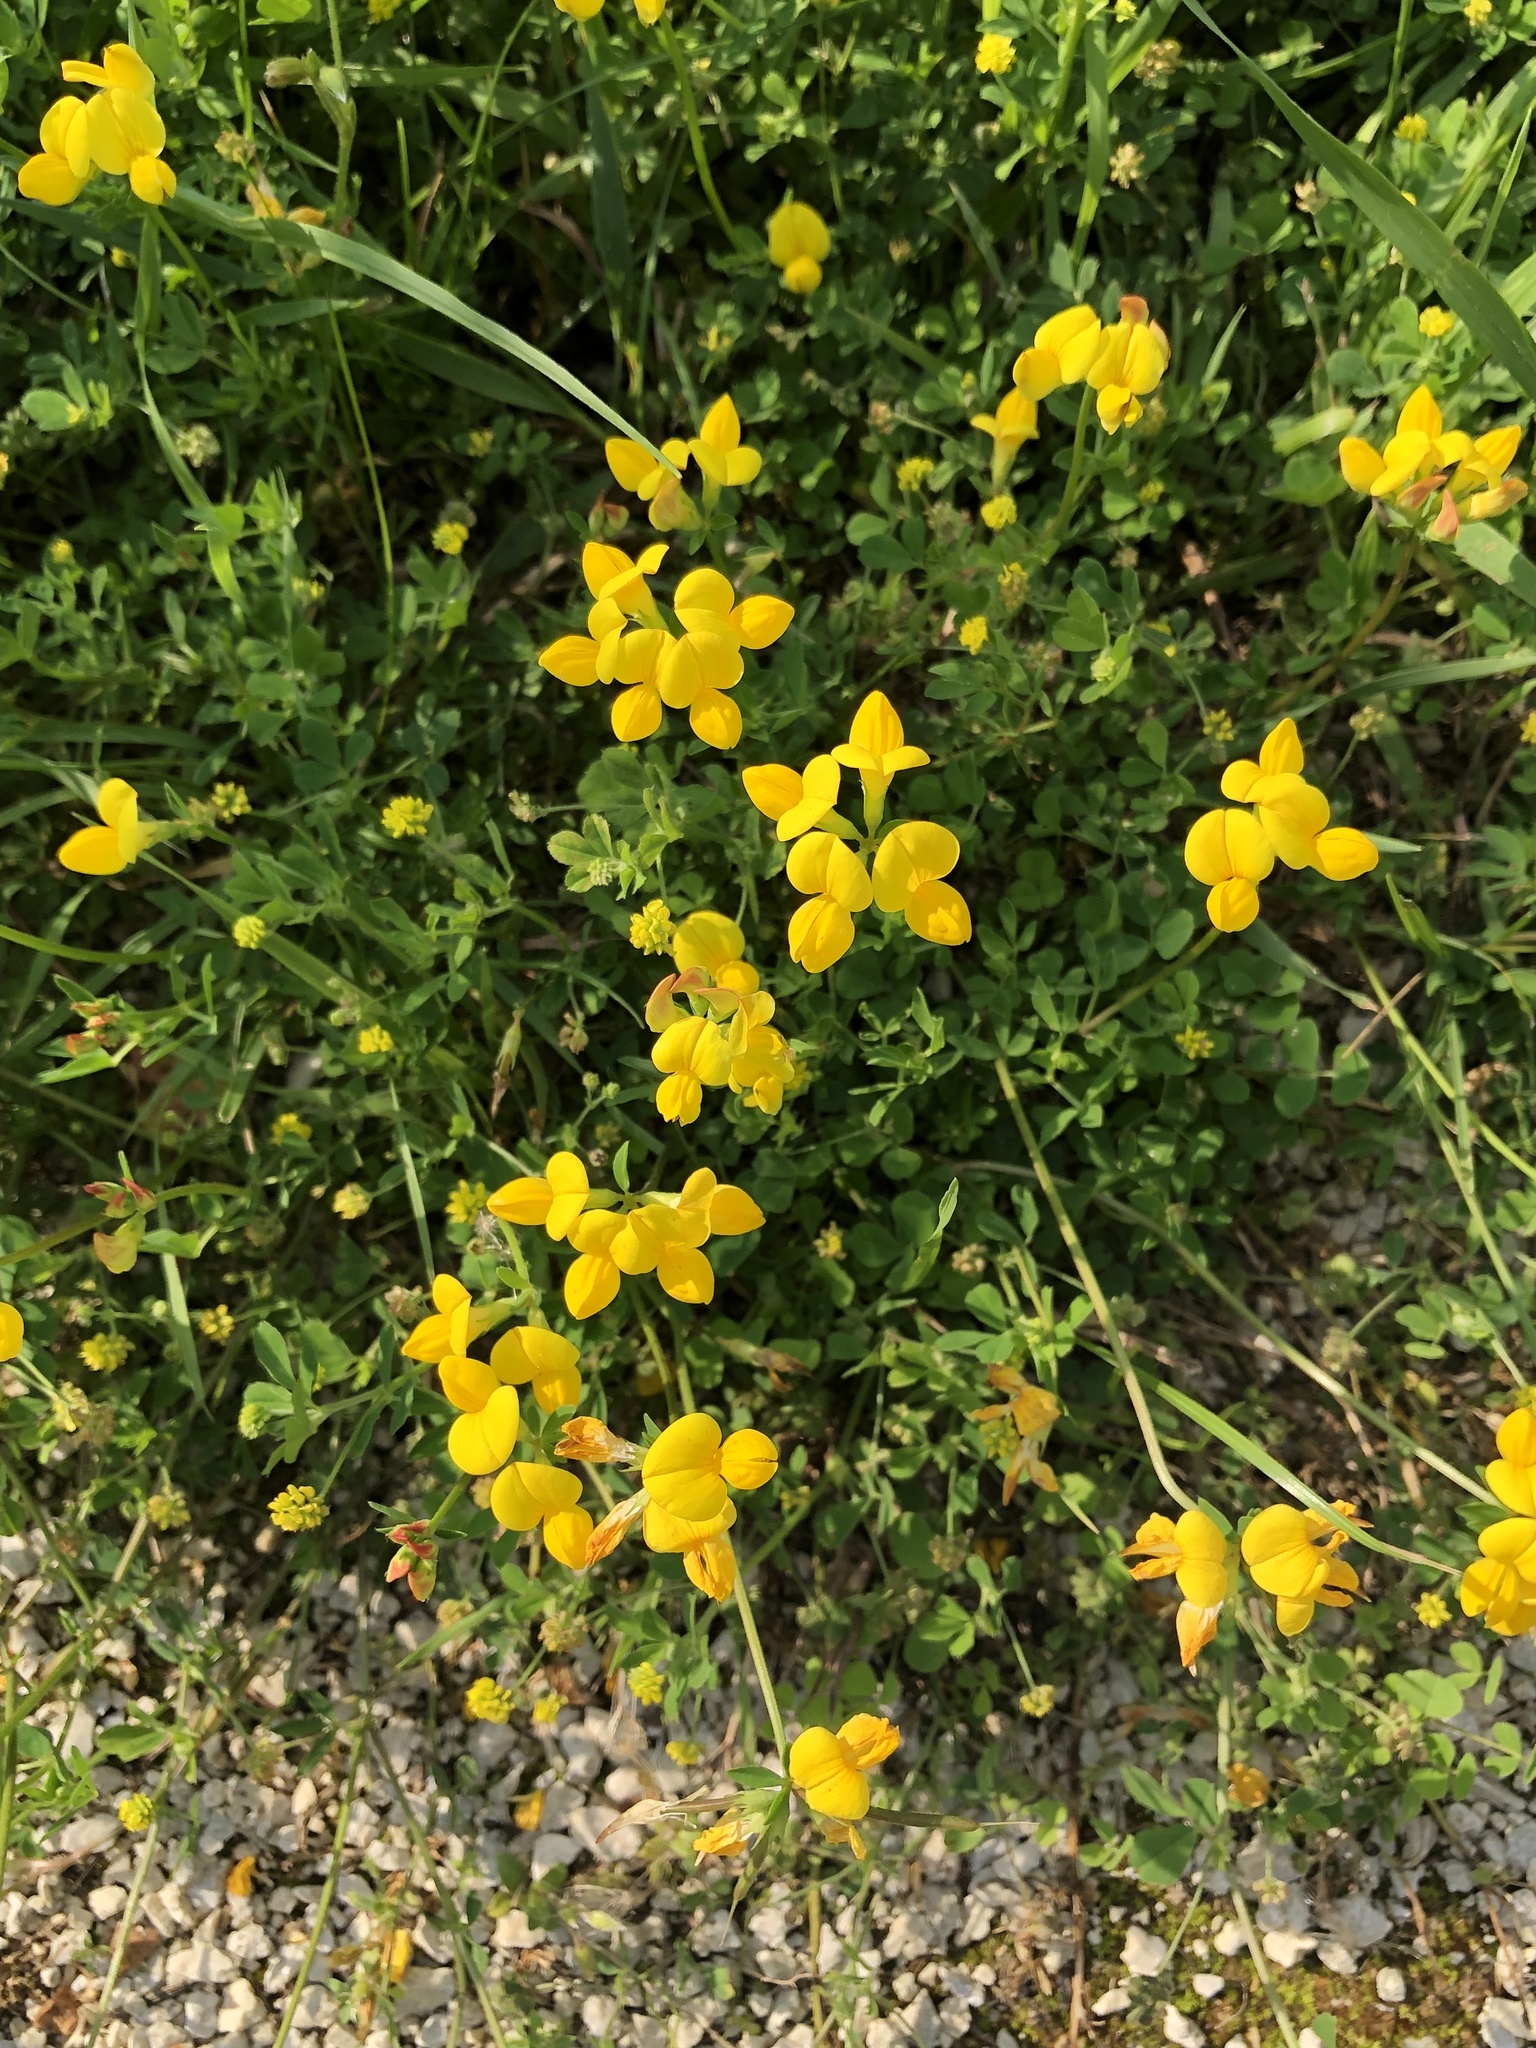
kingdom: Plantae
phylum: Tracheophyta
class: Magnoliopsida
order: Fabales
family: Fabaceae
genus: Lotus
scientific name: Lotus corniculatus
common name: Common bird's-foot-trefoil
